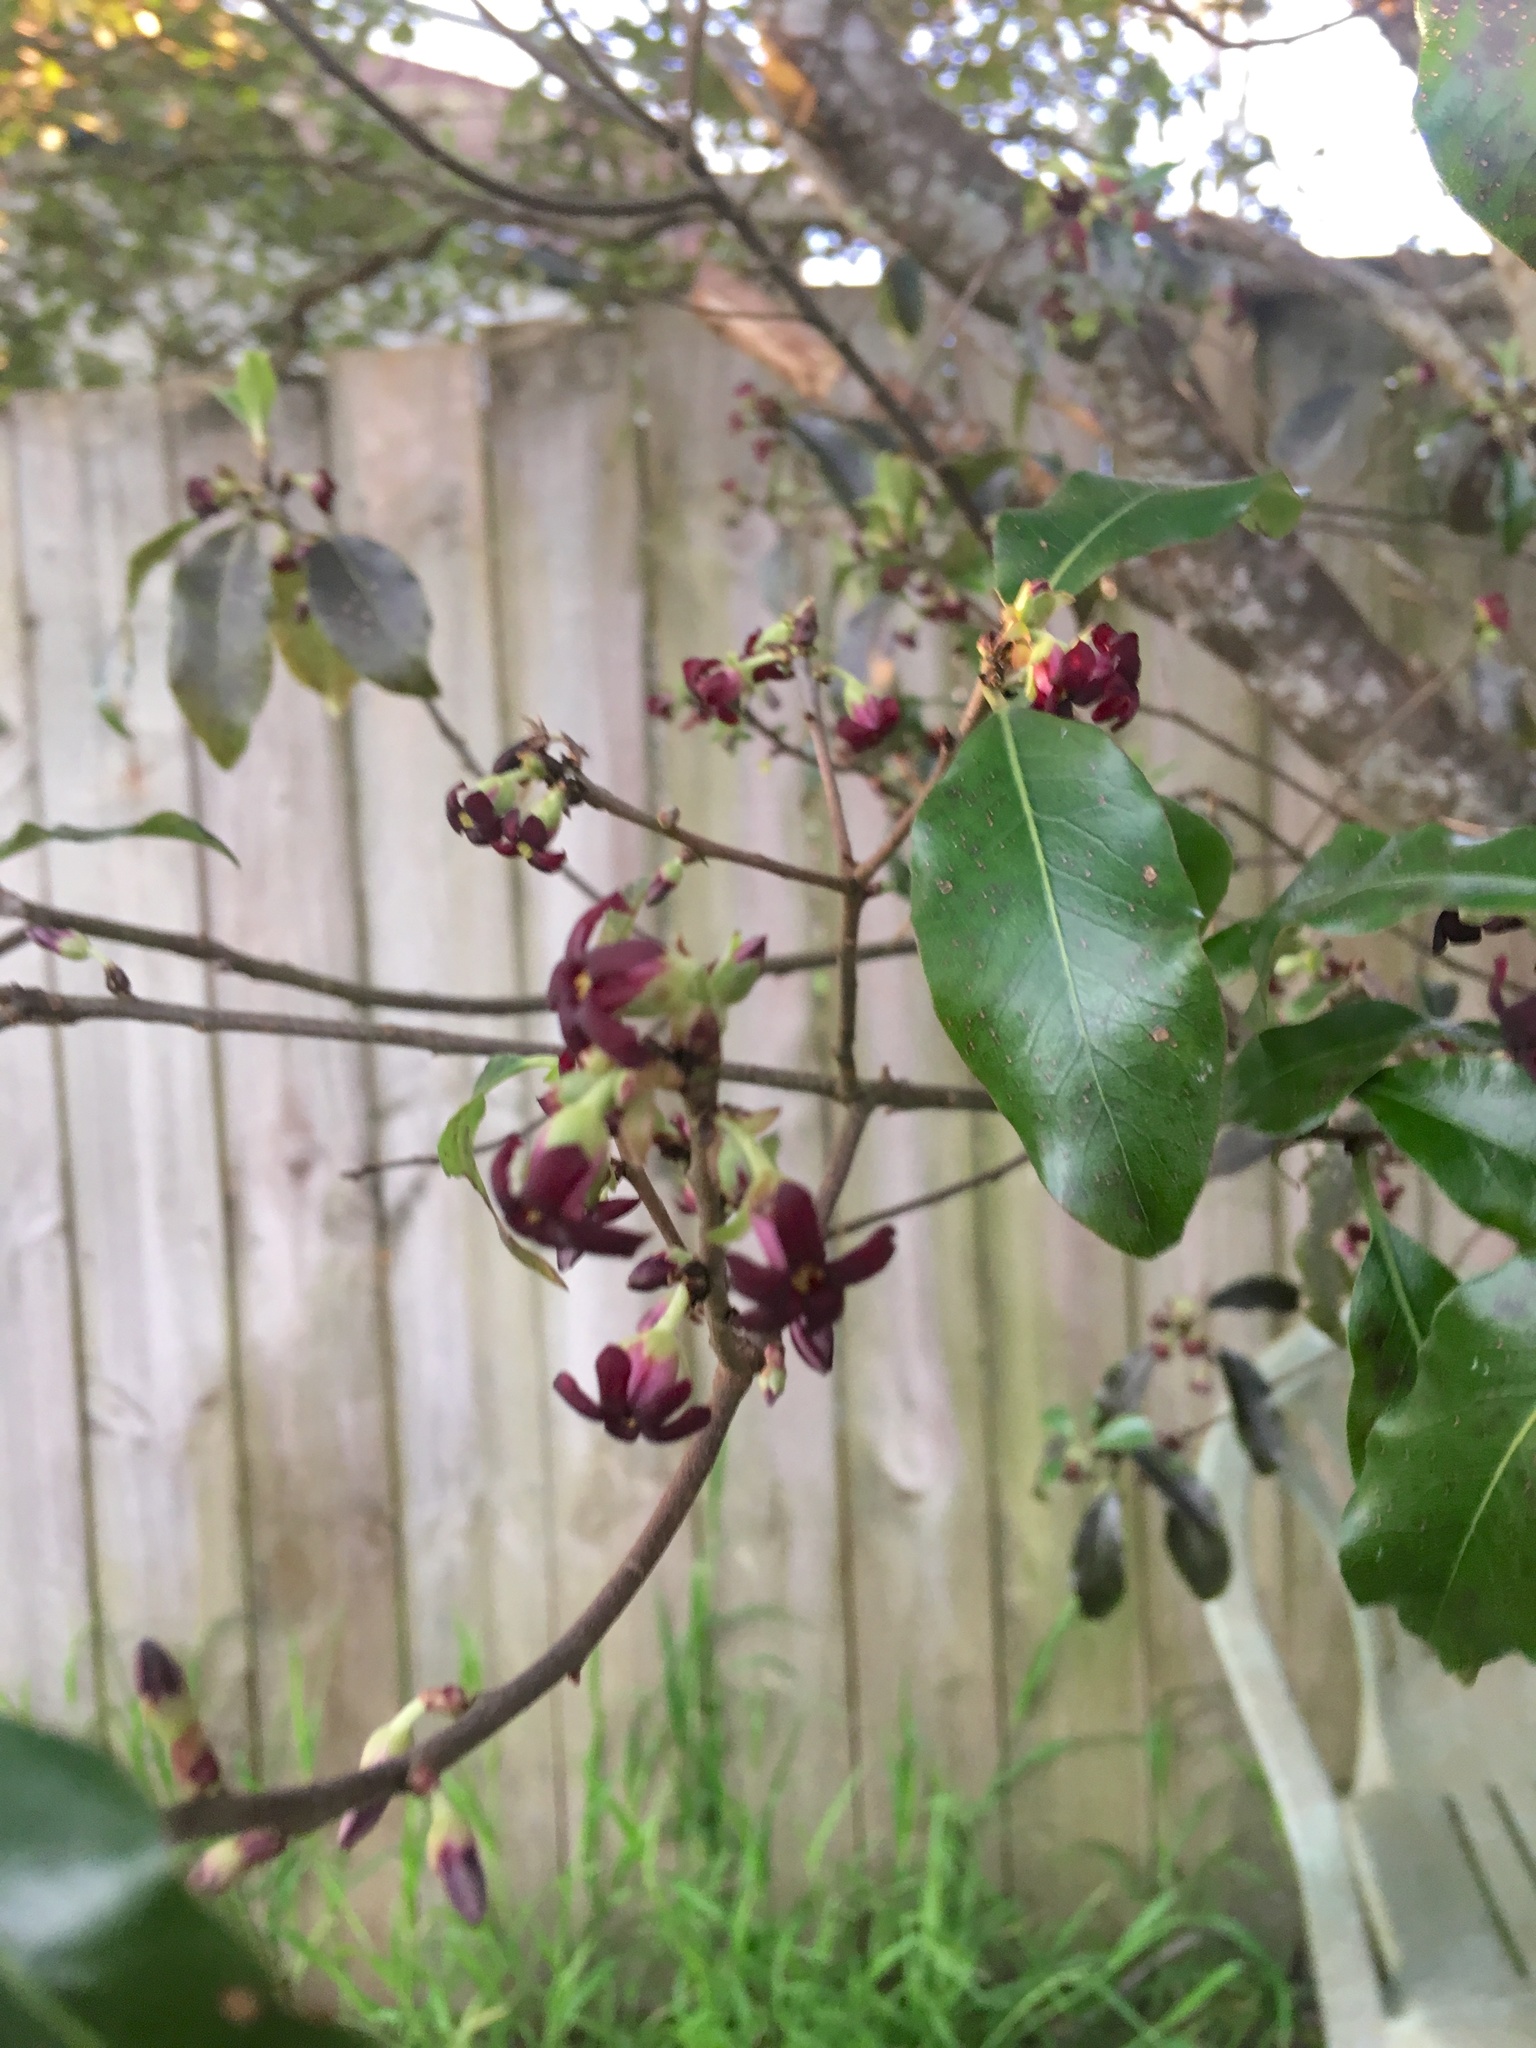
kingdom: Plantae
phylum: Tracheophyta
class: Magnoliopsida
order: Apiales
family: Pittosporaceae
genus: Pittosporum
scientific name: Pittosporum tenuifolium
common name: Kohuhu
